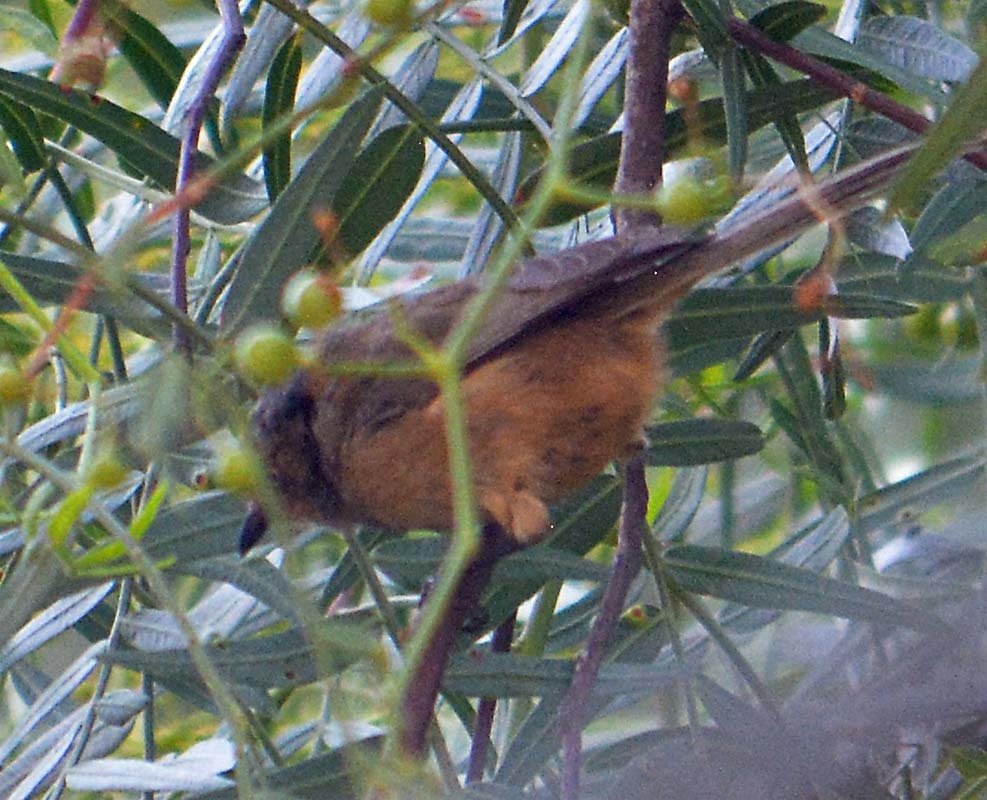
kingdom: Animalia
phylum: Chordata
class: Aves
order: Passeriformes
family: Aegithalidae
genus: Psaltriparus
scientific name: Psaltriparus minimus
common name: American bushtit
